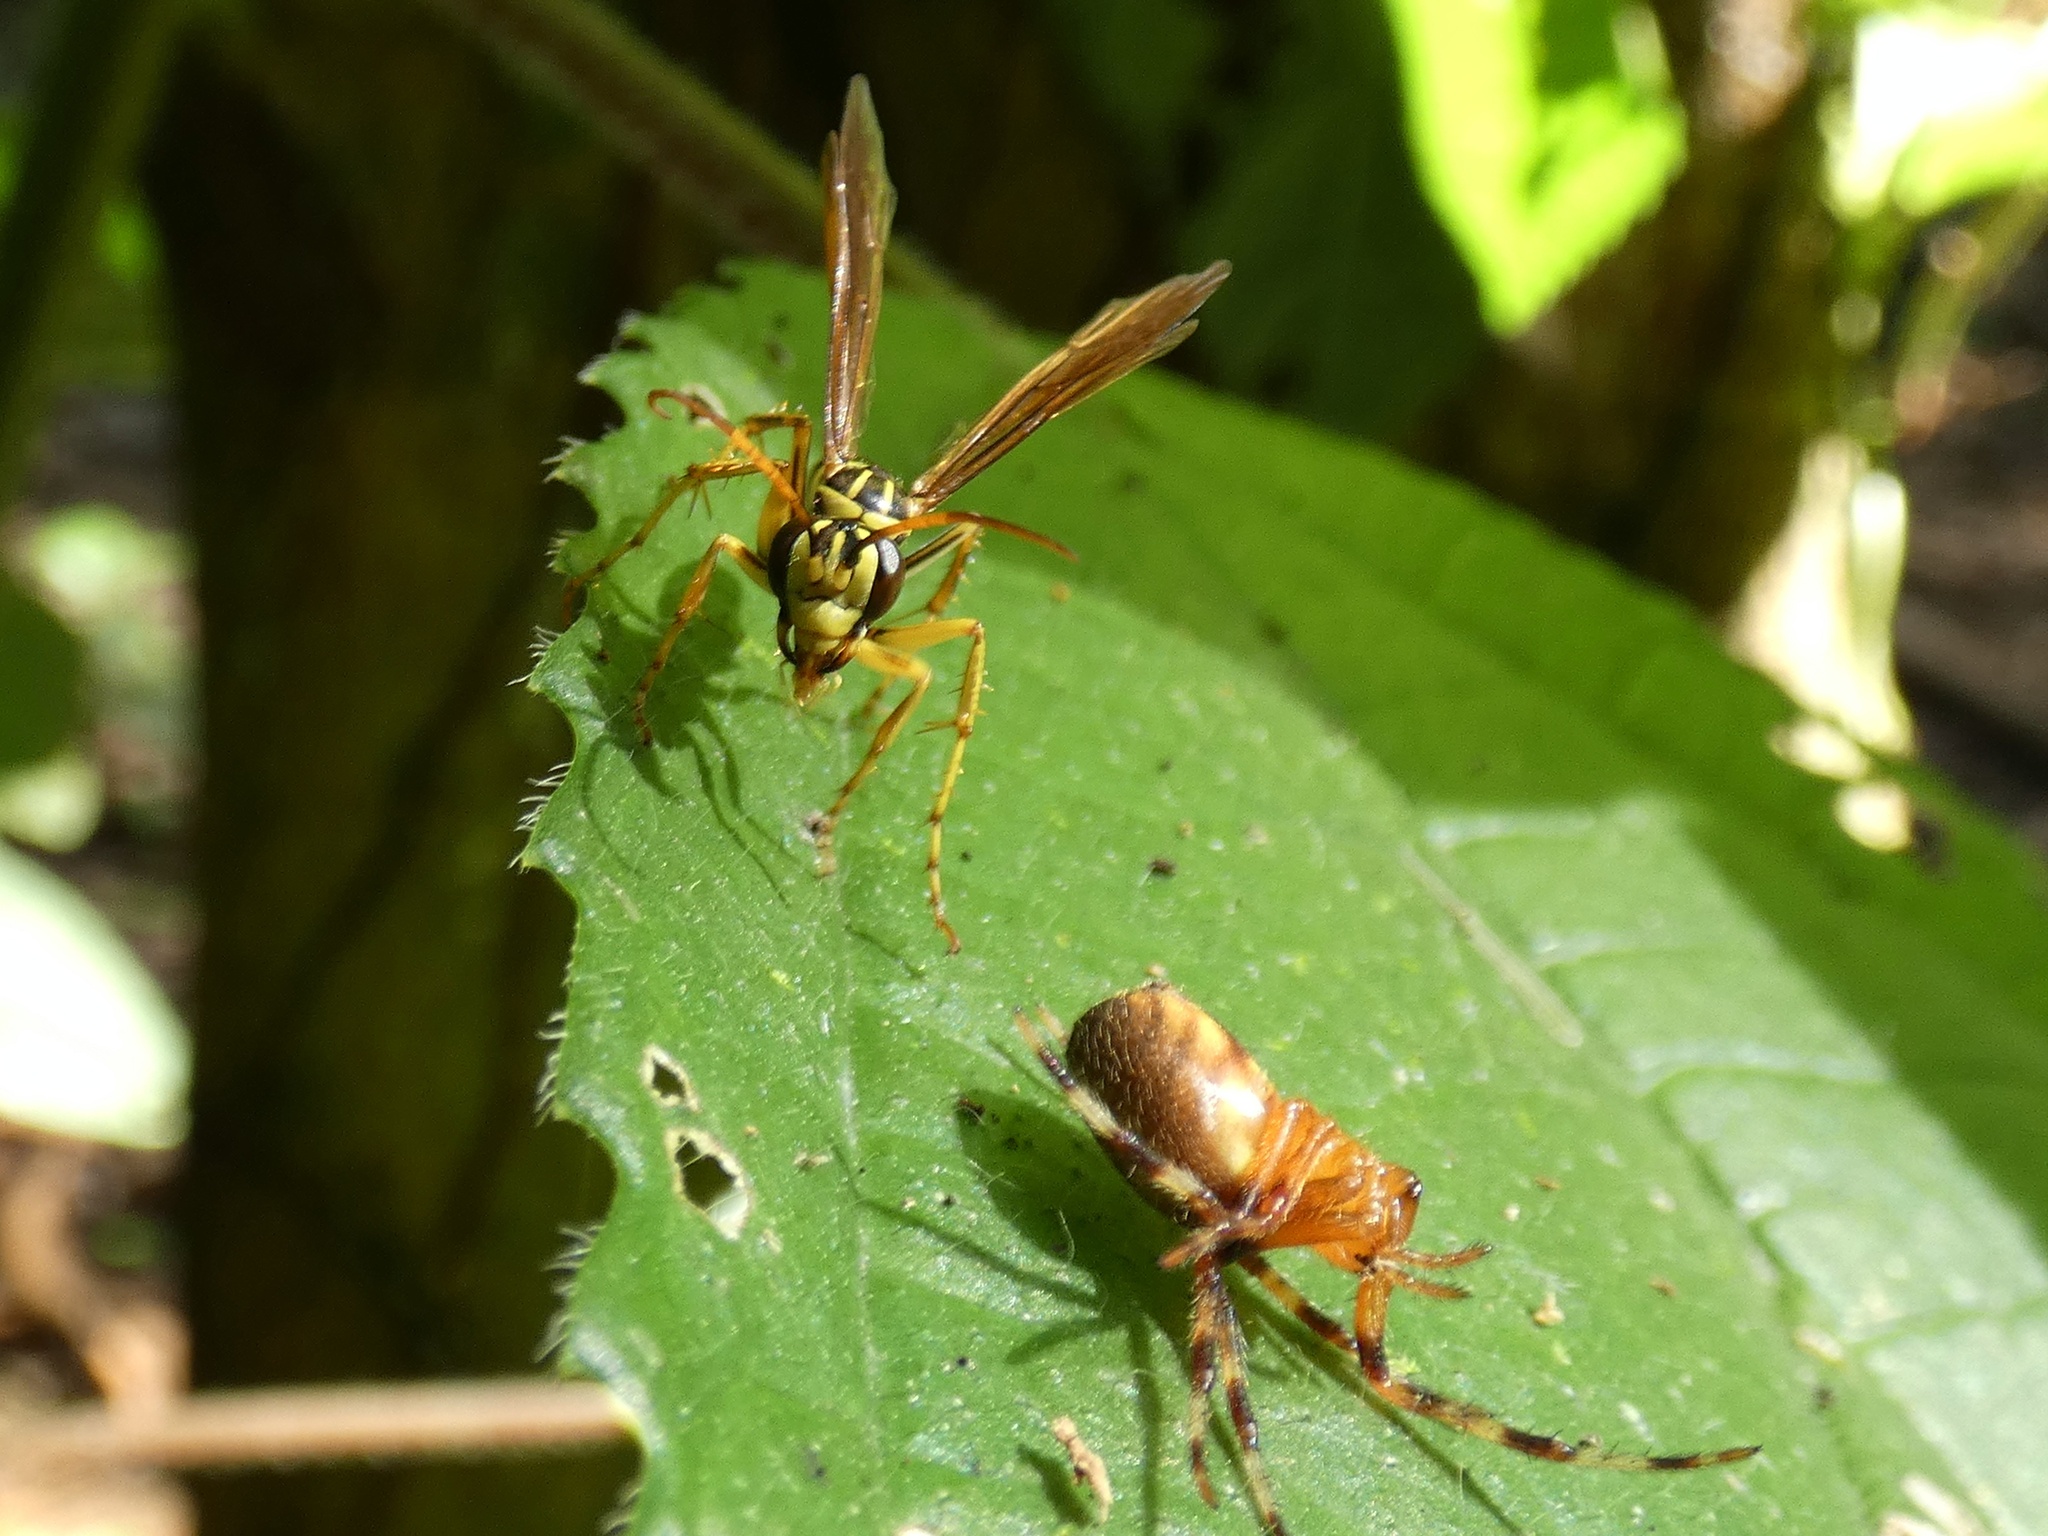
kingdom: Animalia
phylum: Arthropoda
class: Insecta
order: Hymenoptera
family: Pompilidae
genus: Poecilopompilus
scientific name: Poecilopompilus mixtus
